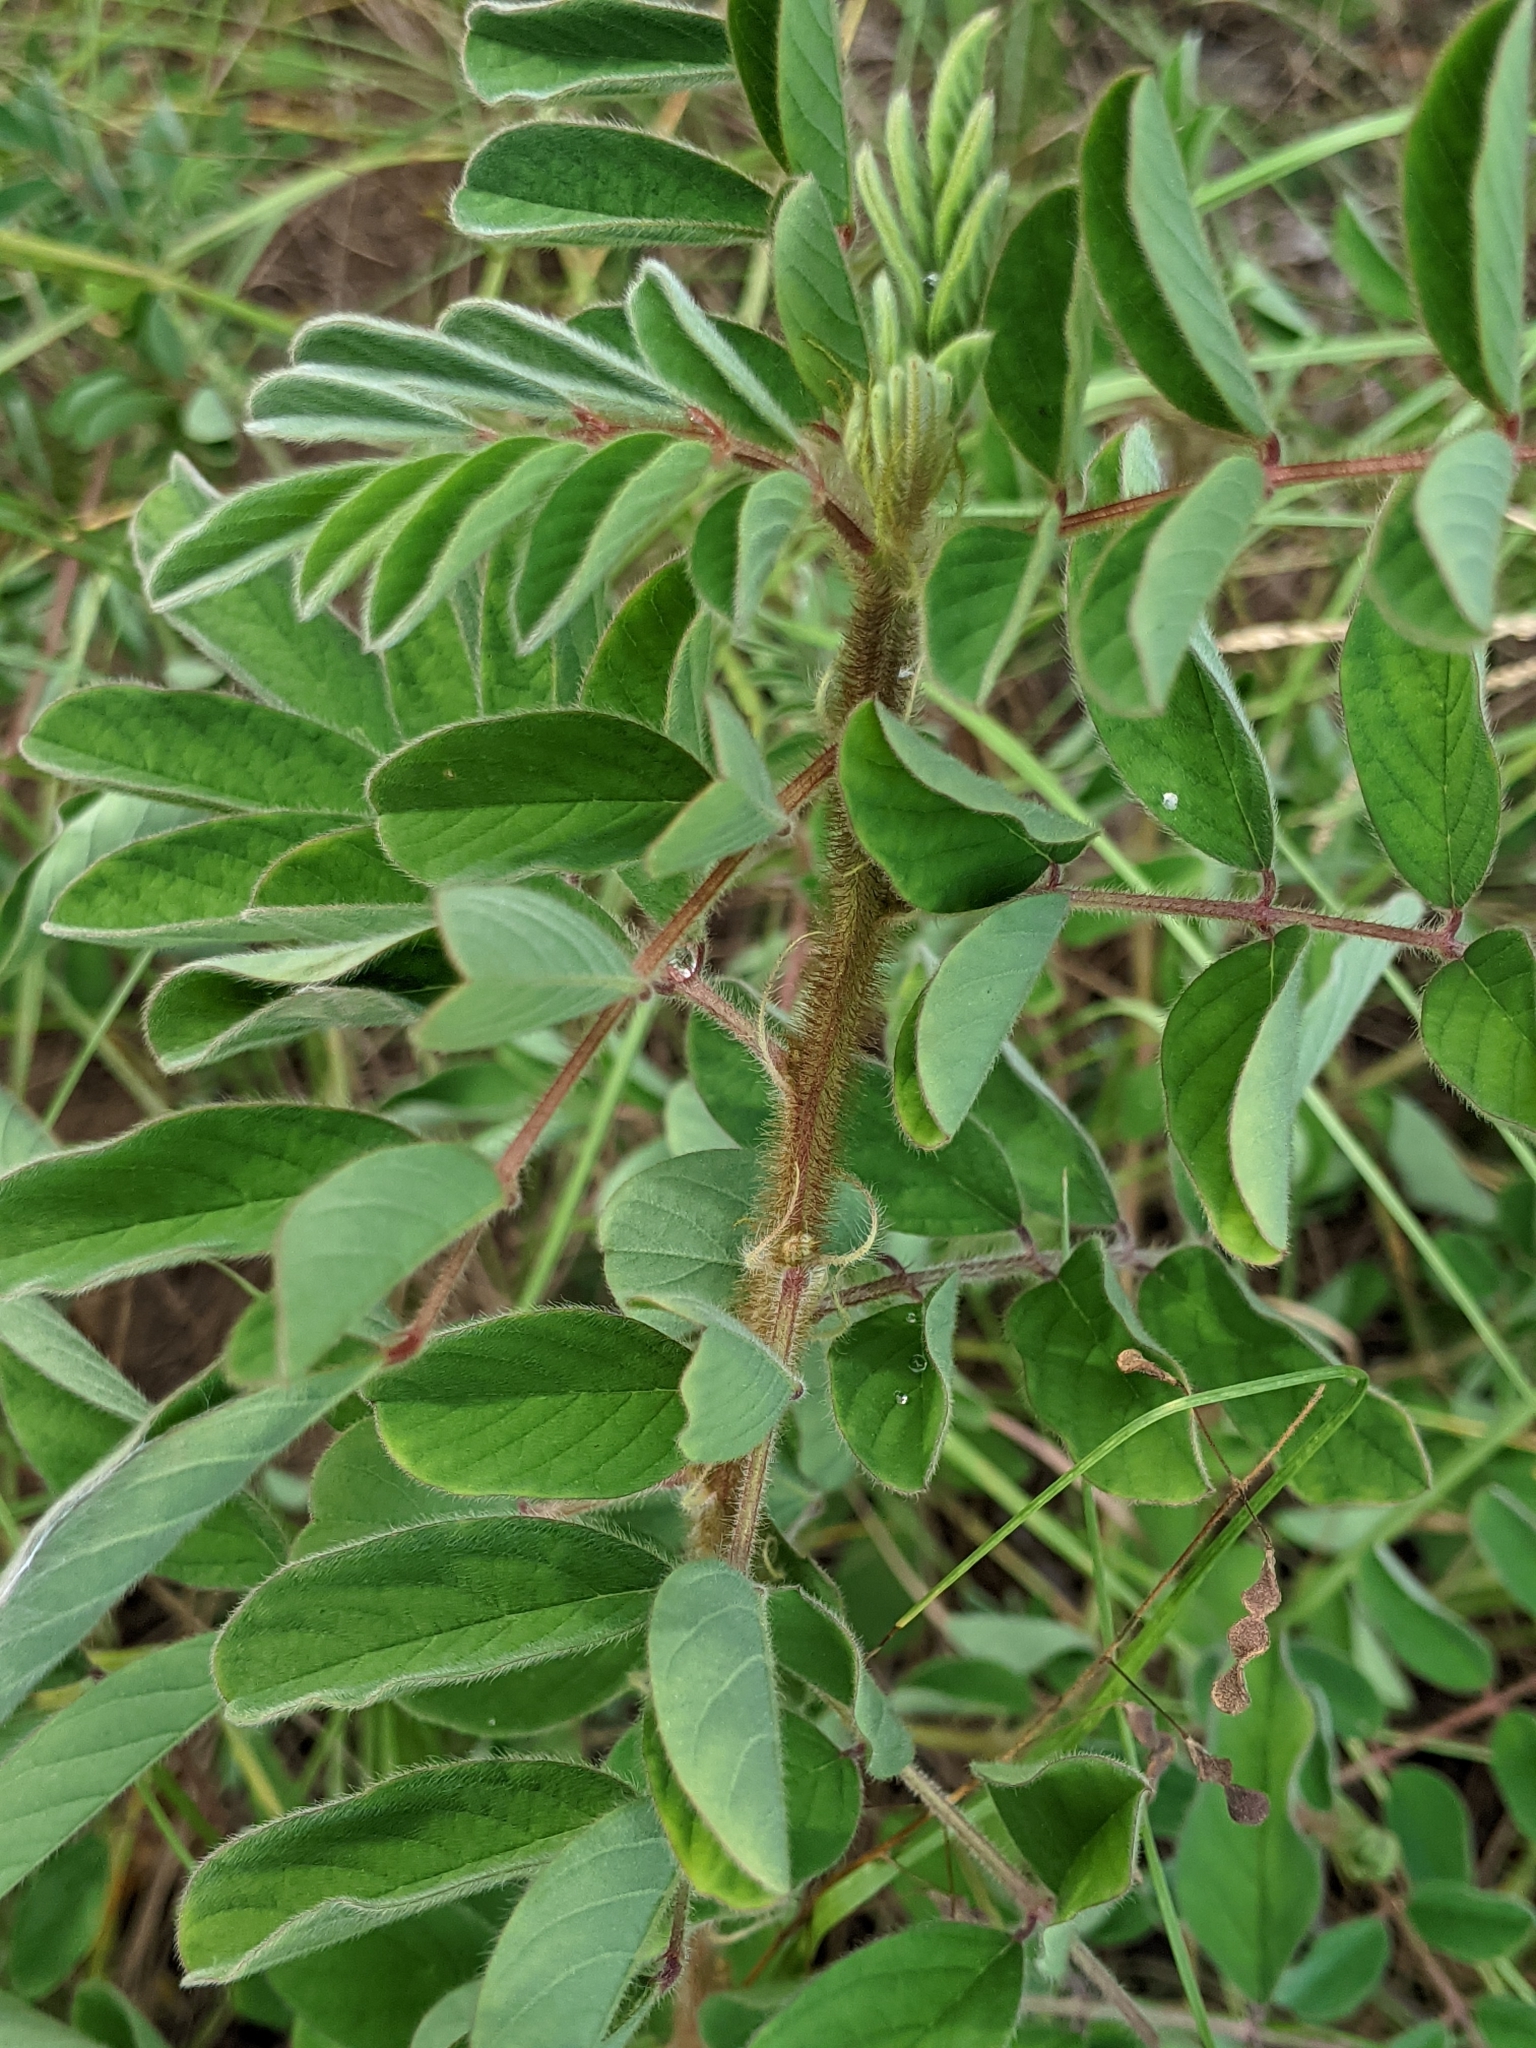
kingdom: Plantae
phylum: Tracheophyta
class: Magnoliopsida
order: Fabales
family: Fabaceae
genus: Indigofera
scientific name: Indigofera hirsuta
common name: Hairy indigo
